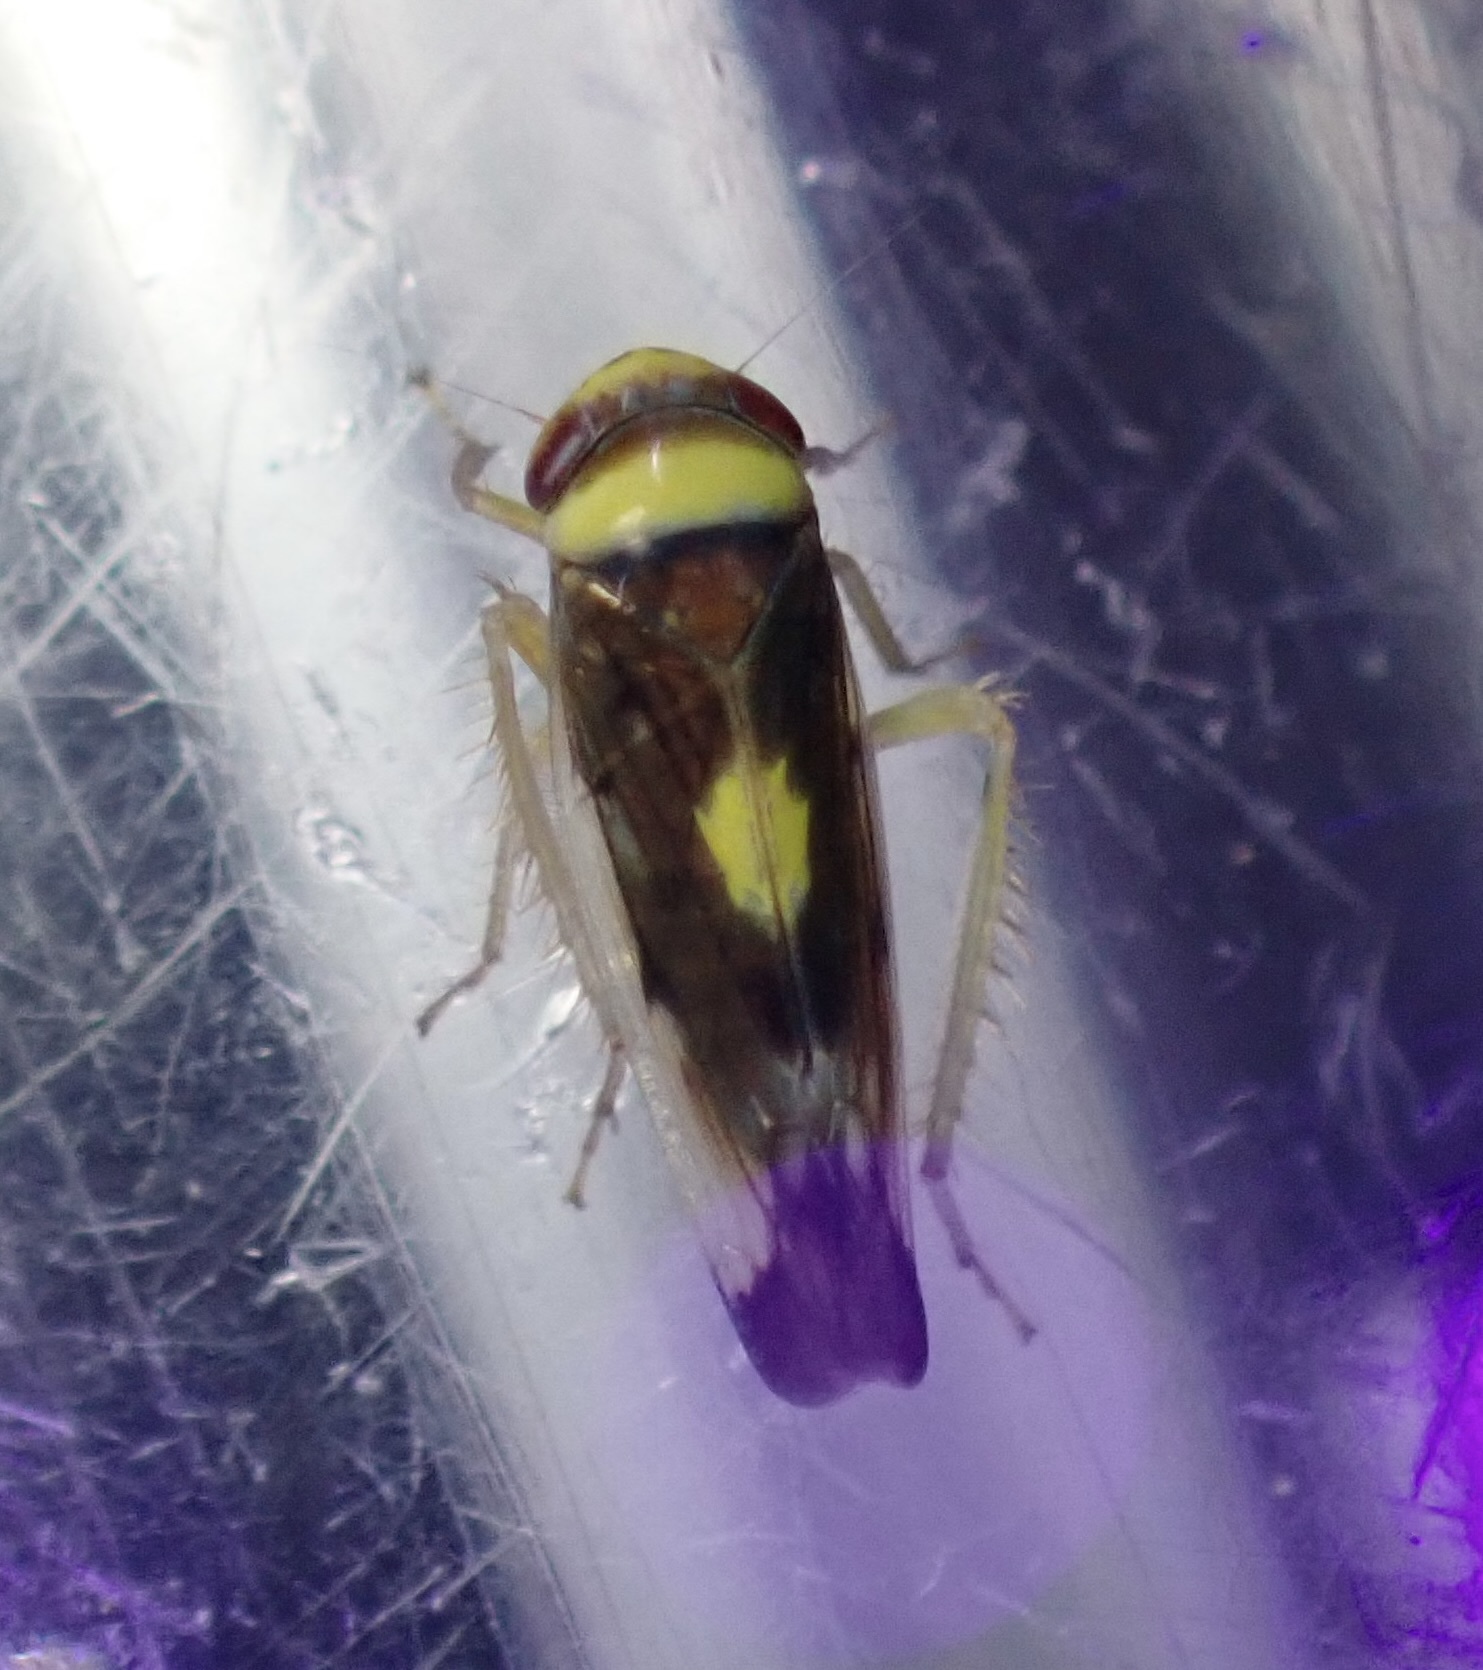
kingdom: Animalia
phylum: Arthropoda
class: Insecta
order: Hemiptera
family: Cicadellidae
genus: Colladonus
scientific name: Colladonus montanus
